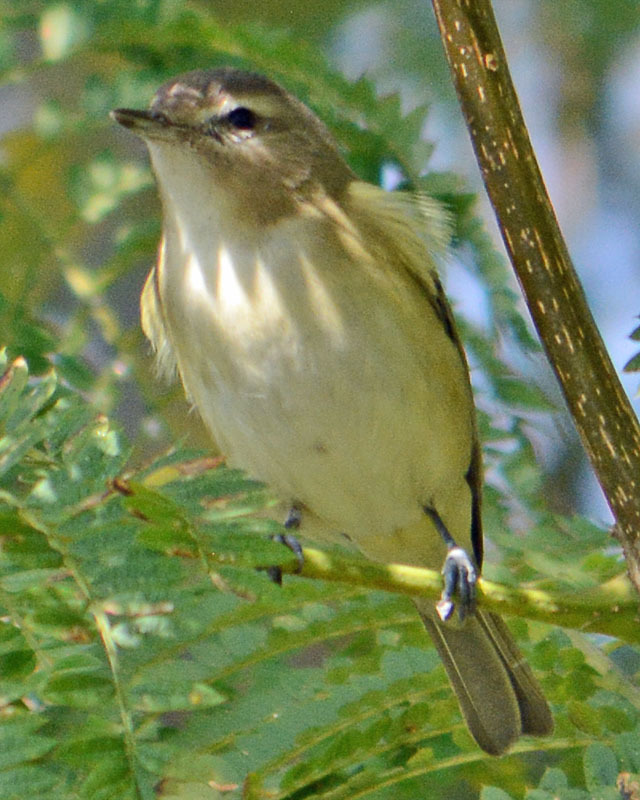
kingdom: Animalia
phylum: Chordata
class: Aves
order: Passeriformes
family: Vireonidae
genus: Vireo
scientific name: Vireo gilvus
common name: Warbling vireo
